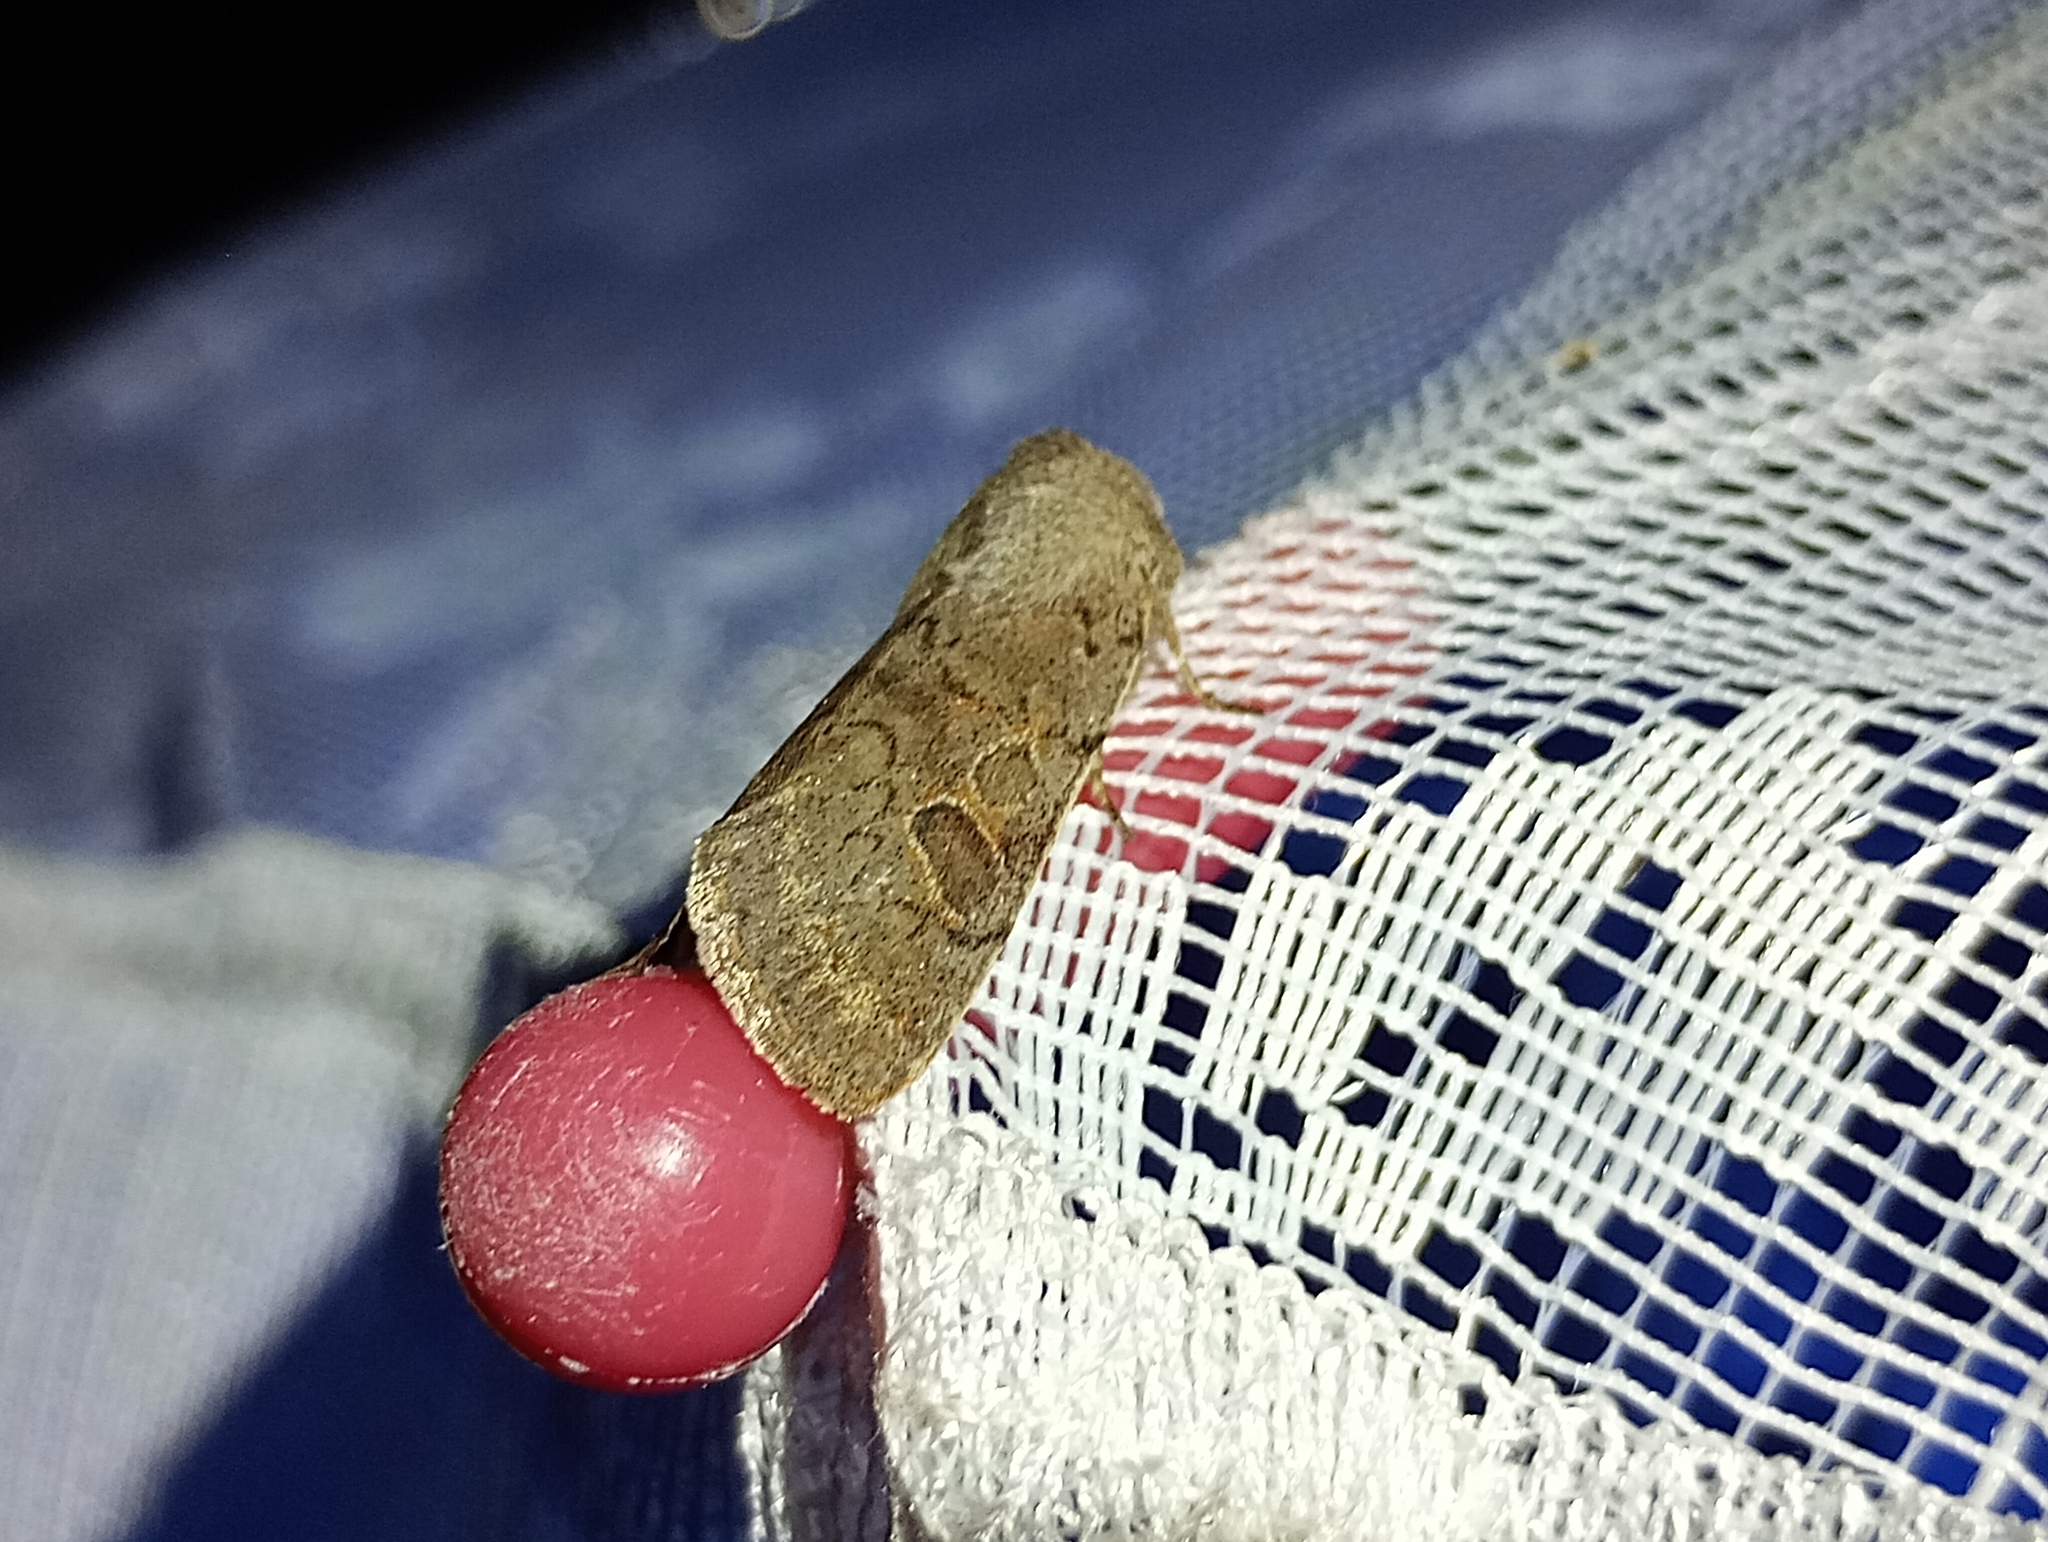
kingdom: Animalia
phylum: Arthropoda
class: Insecta
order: Lepidoptera
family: Noctuidae
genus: Orthosia
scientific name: Orthosia populeti
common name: Lead-coloured drab
